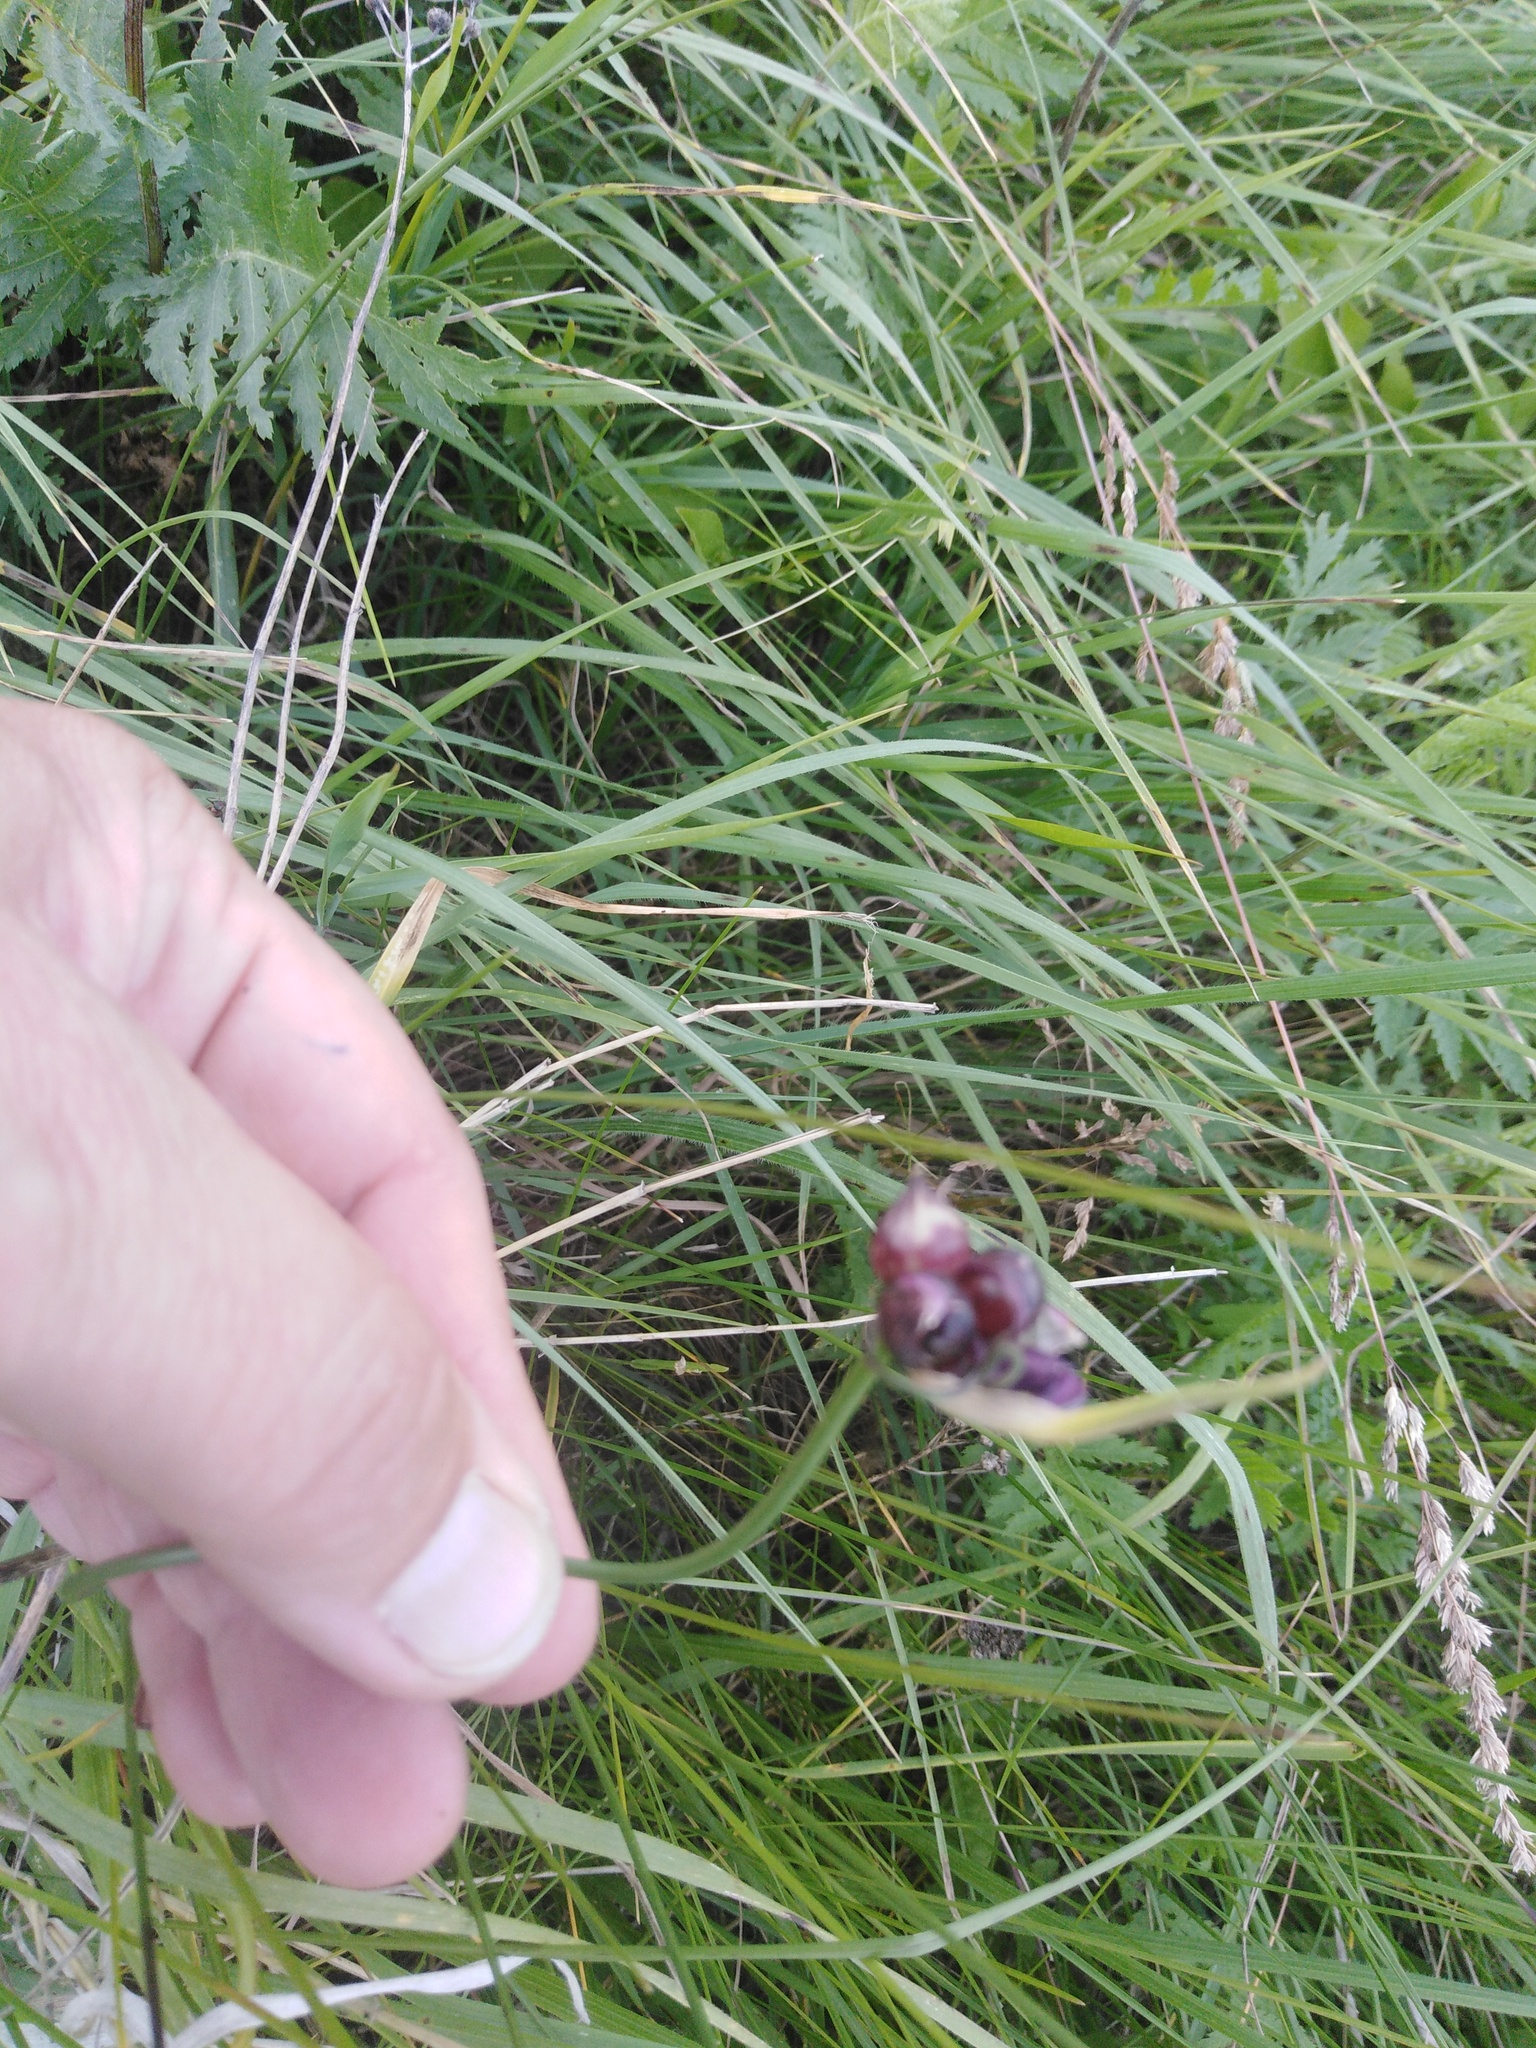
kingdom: Plantae
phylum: Tracheophyta
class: Liliopsida
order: Asparagales
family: Amaryllidaceae
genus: Allium
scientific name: Allium scorodoprasum
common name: Sand leek
